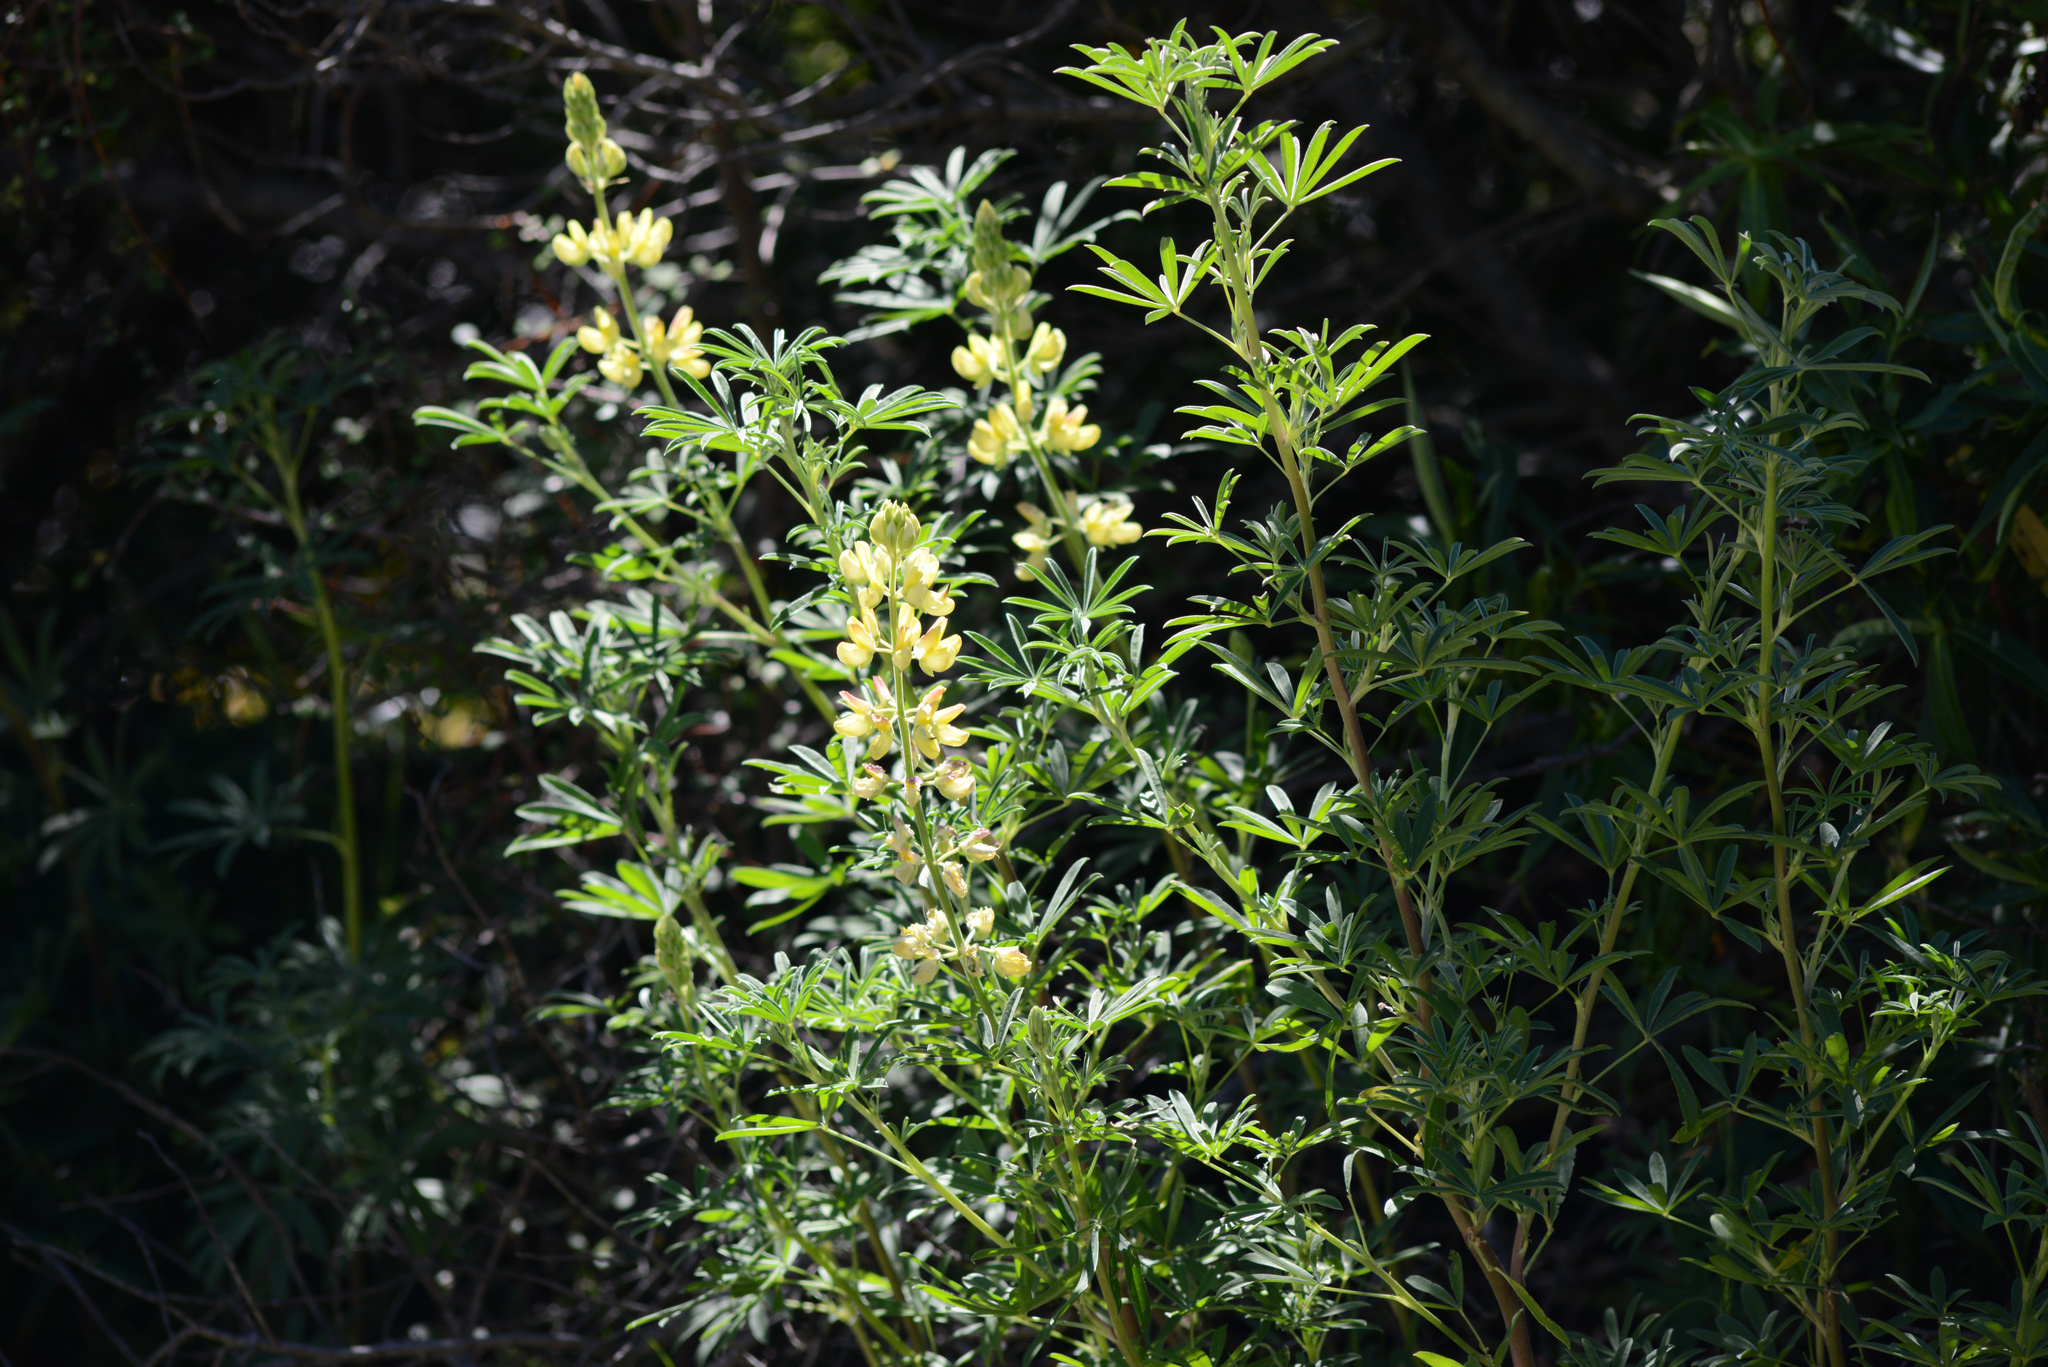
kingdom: Plantae
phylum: Tracheophyta
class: Magnoliopsida
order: Fabales
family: Fabaceae
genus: Lupinus
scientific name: Lupinus arboreus
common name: Yellow bush lupine
